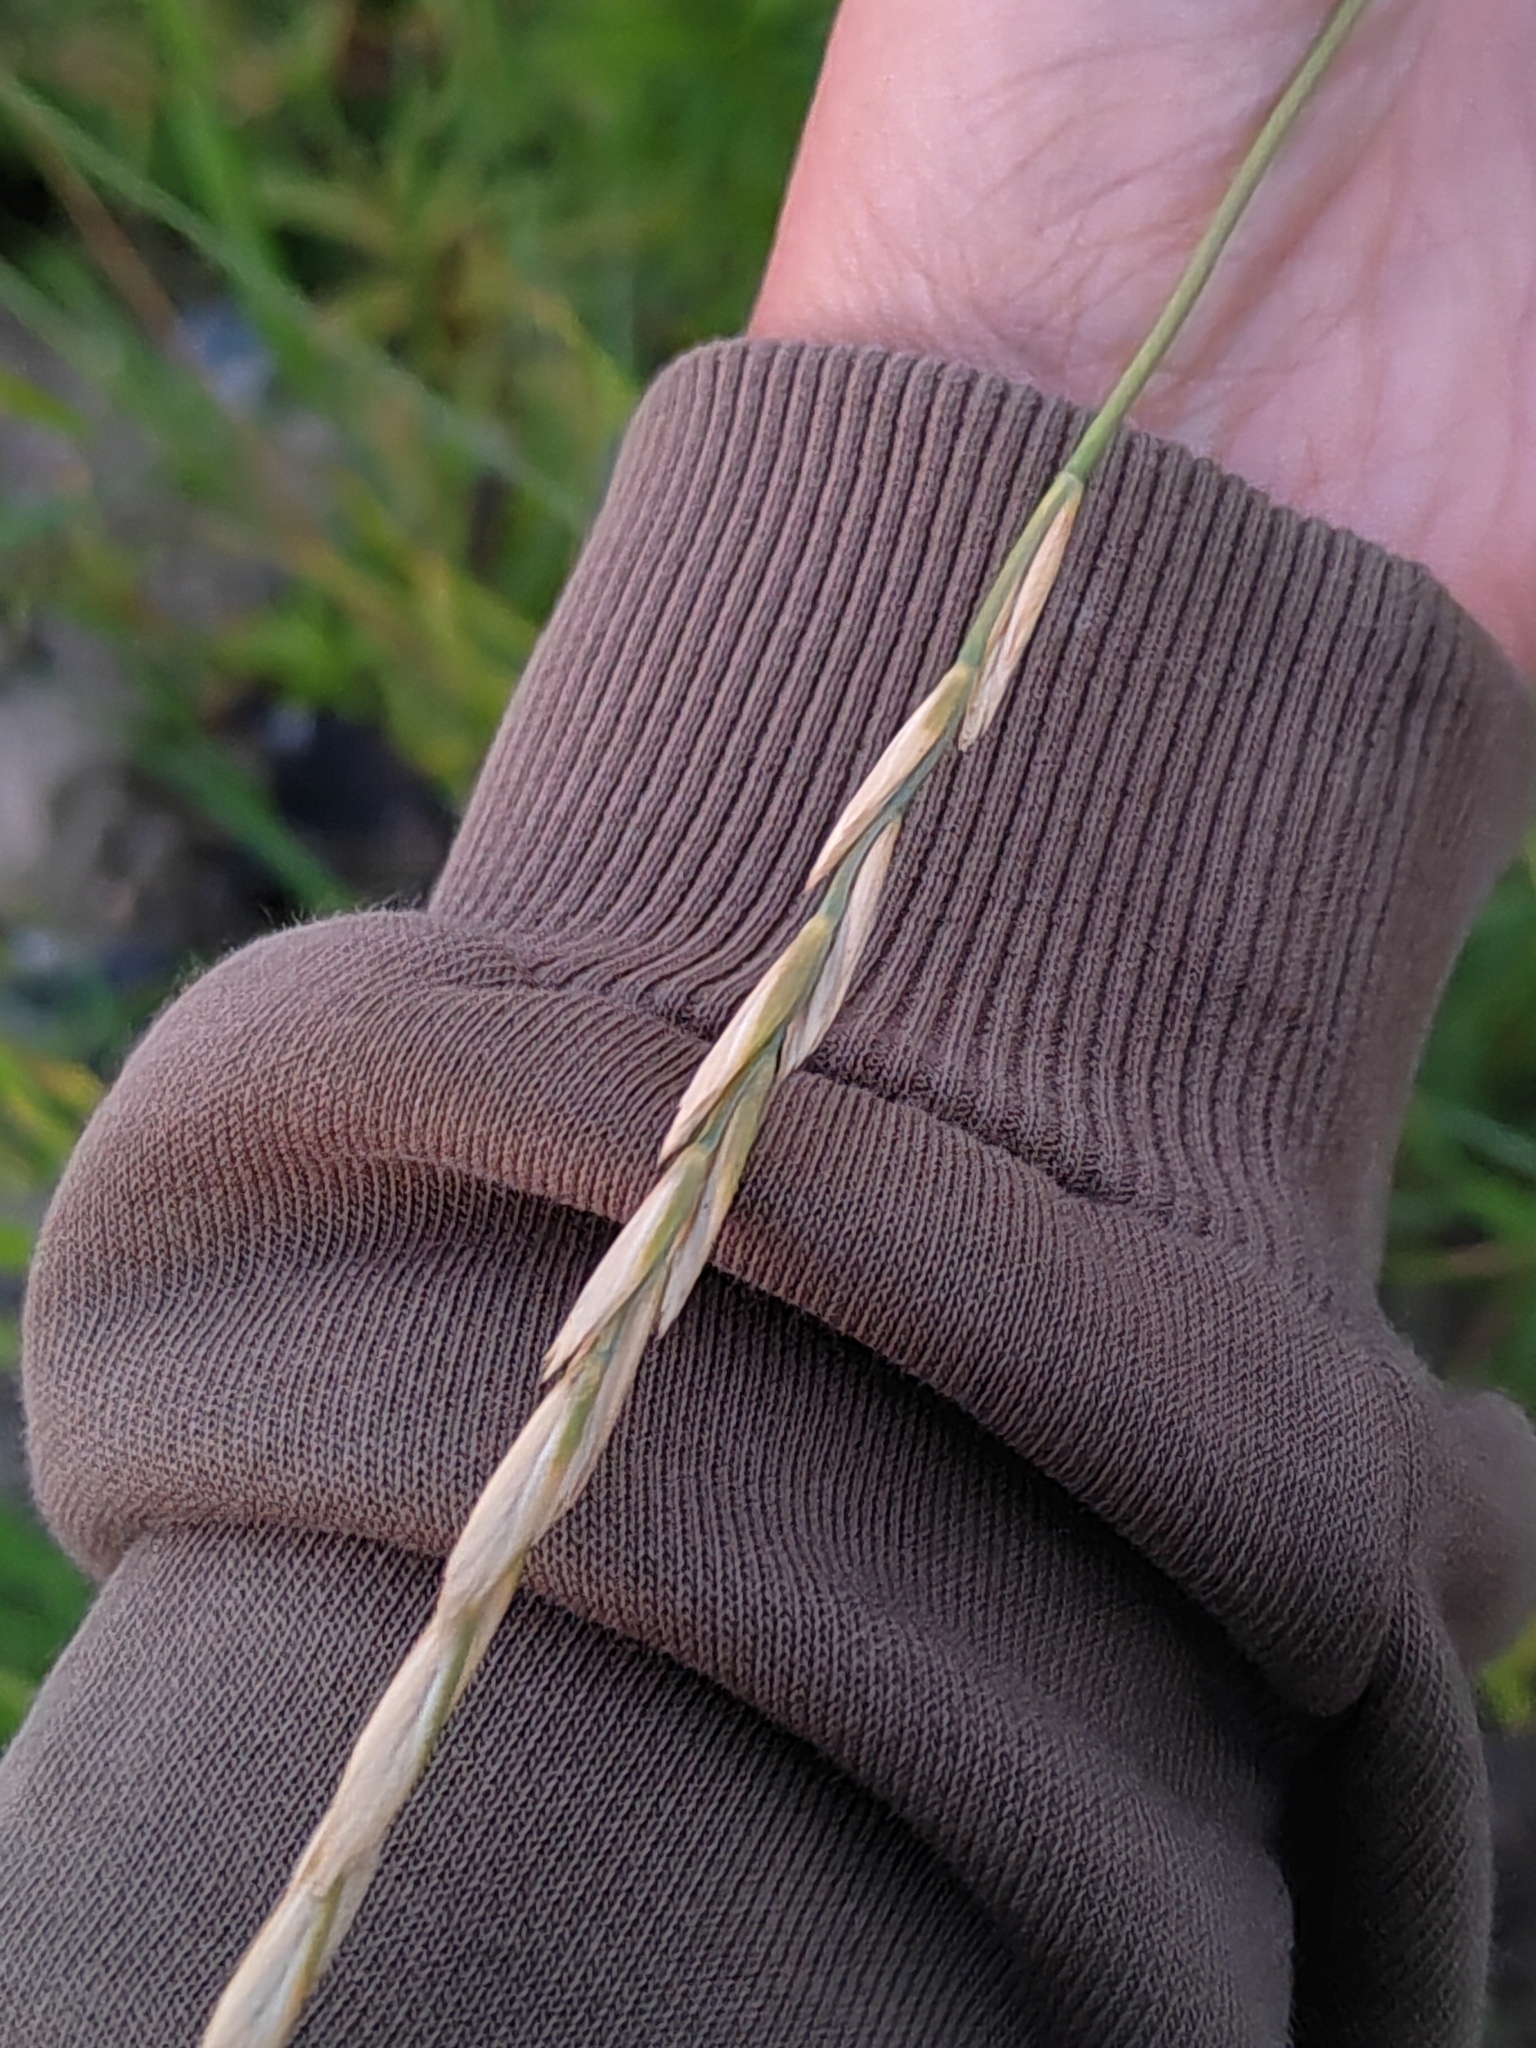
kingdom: Plantae
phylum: Tracheophyta
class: Liliopsida
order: Poales
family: Poaceae
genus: Elymus
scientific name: Elymus repens
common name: Quackgrass
